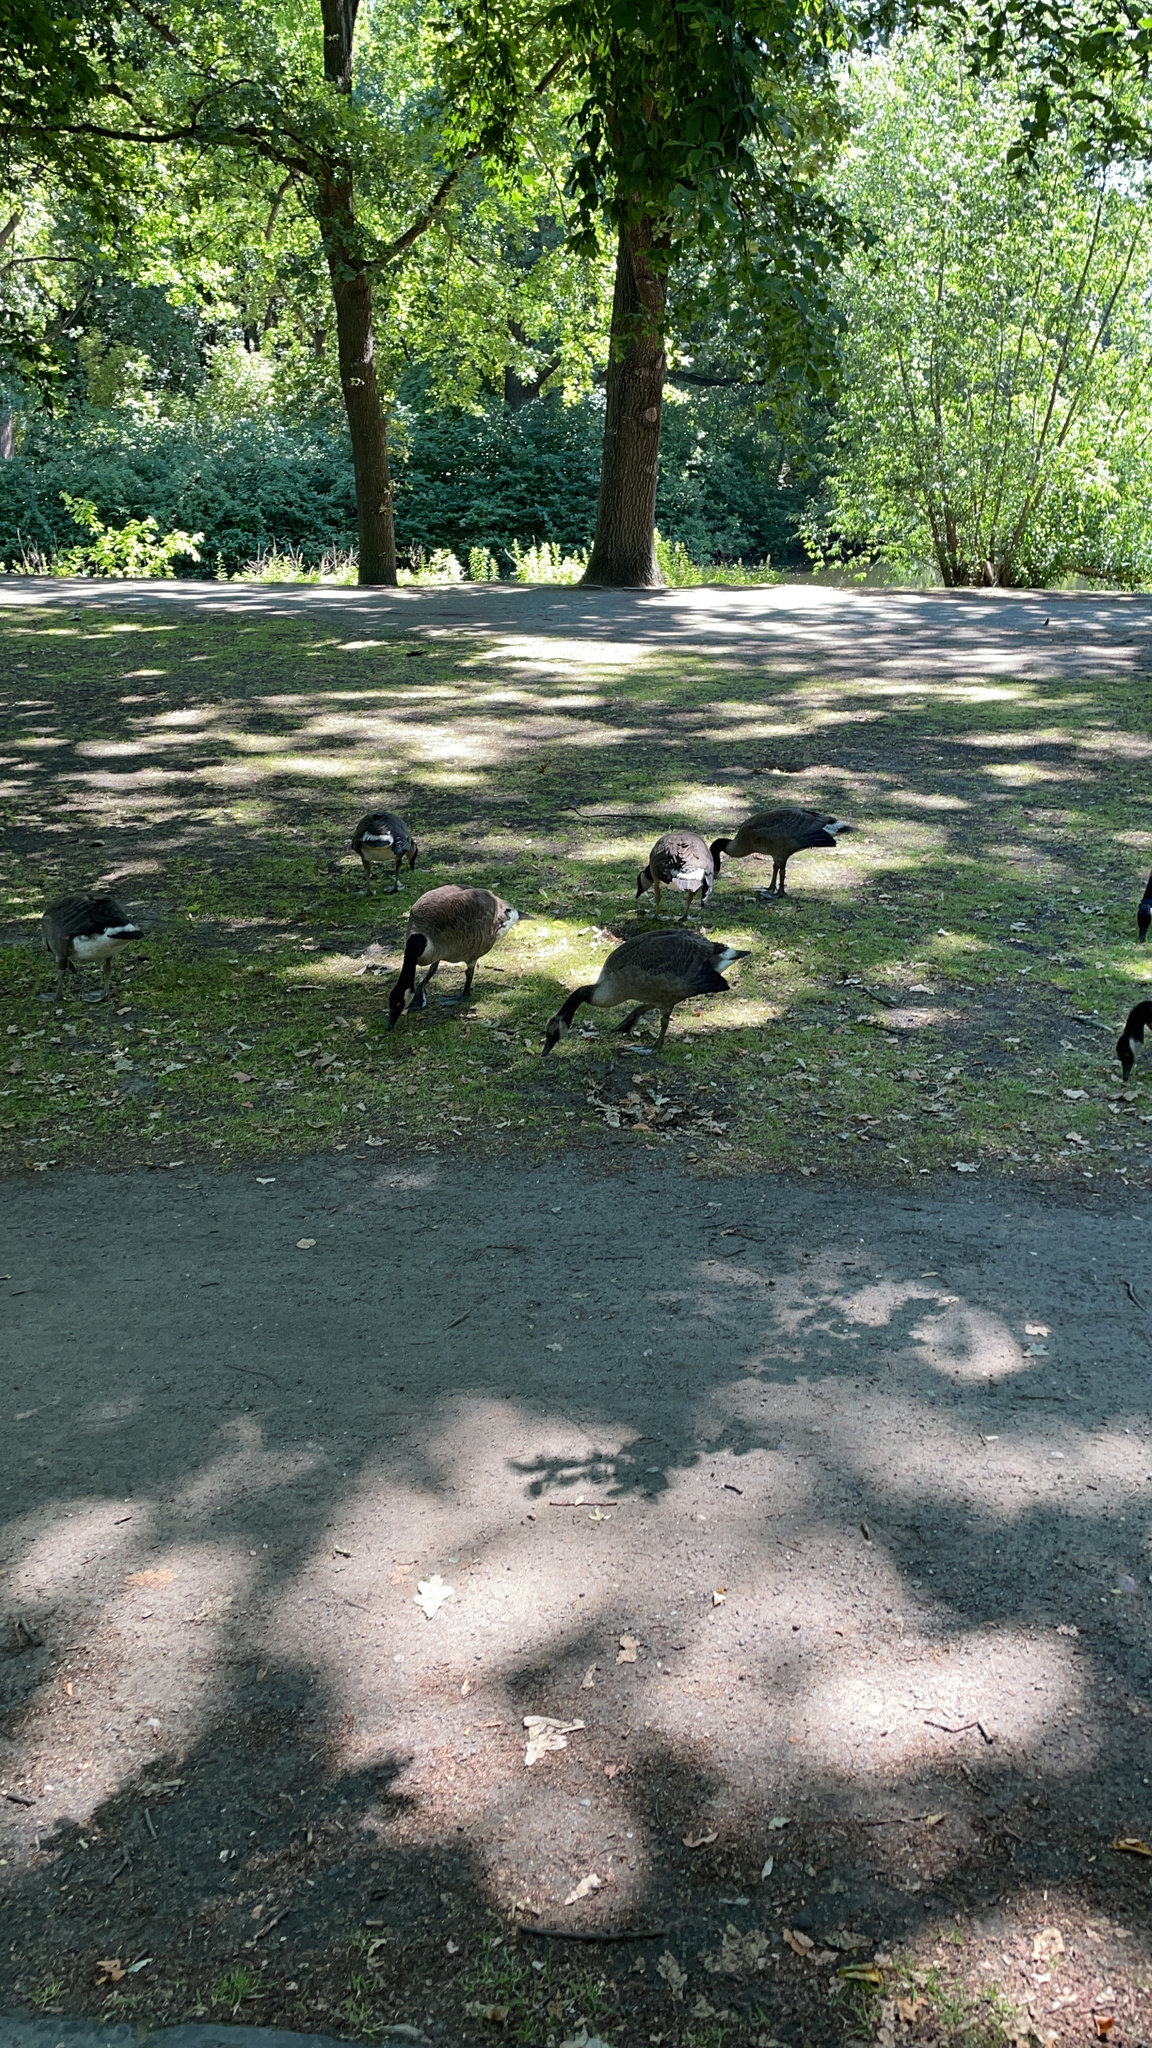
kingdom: Animalia
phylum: Chordata
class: Aves
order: Anseriformes
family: Anatidae
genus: Branta
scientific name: Branta canadensis
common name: Canada goose
